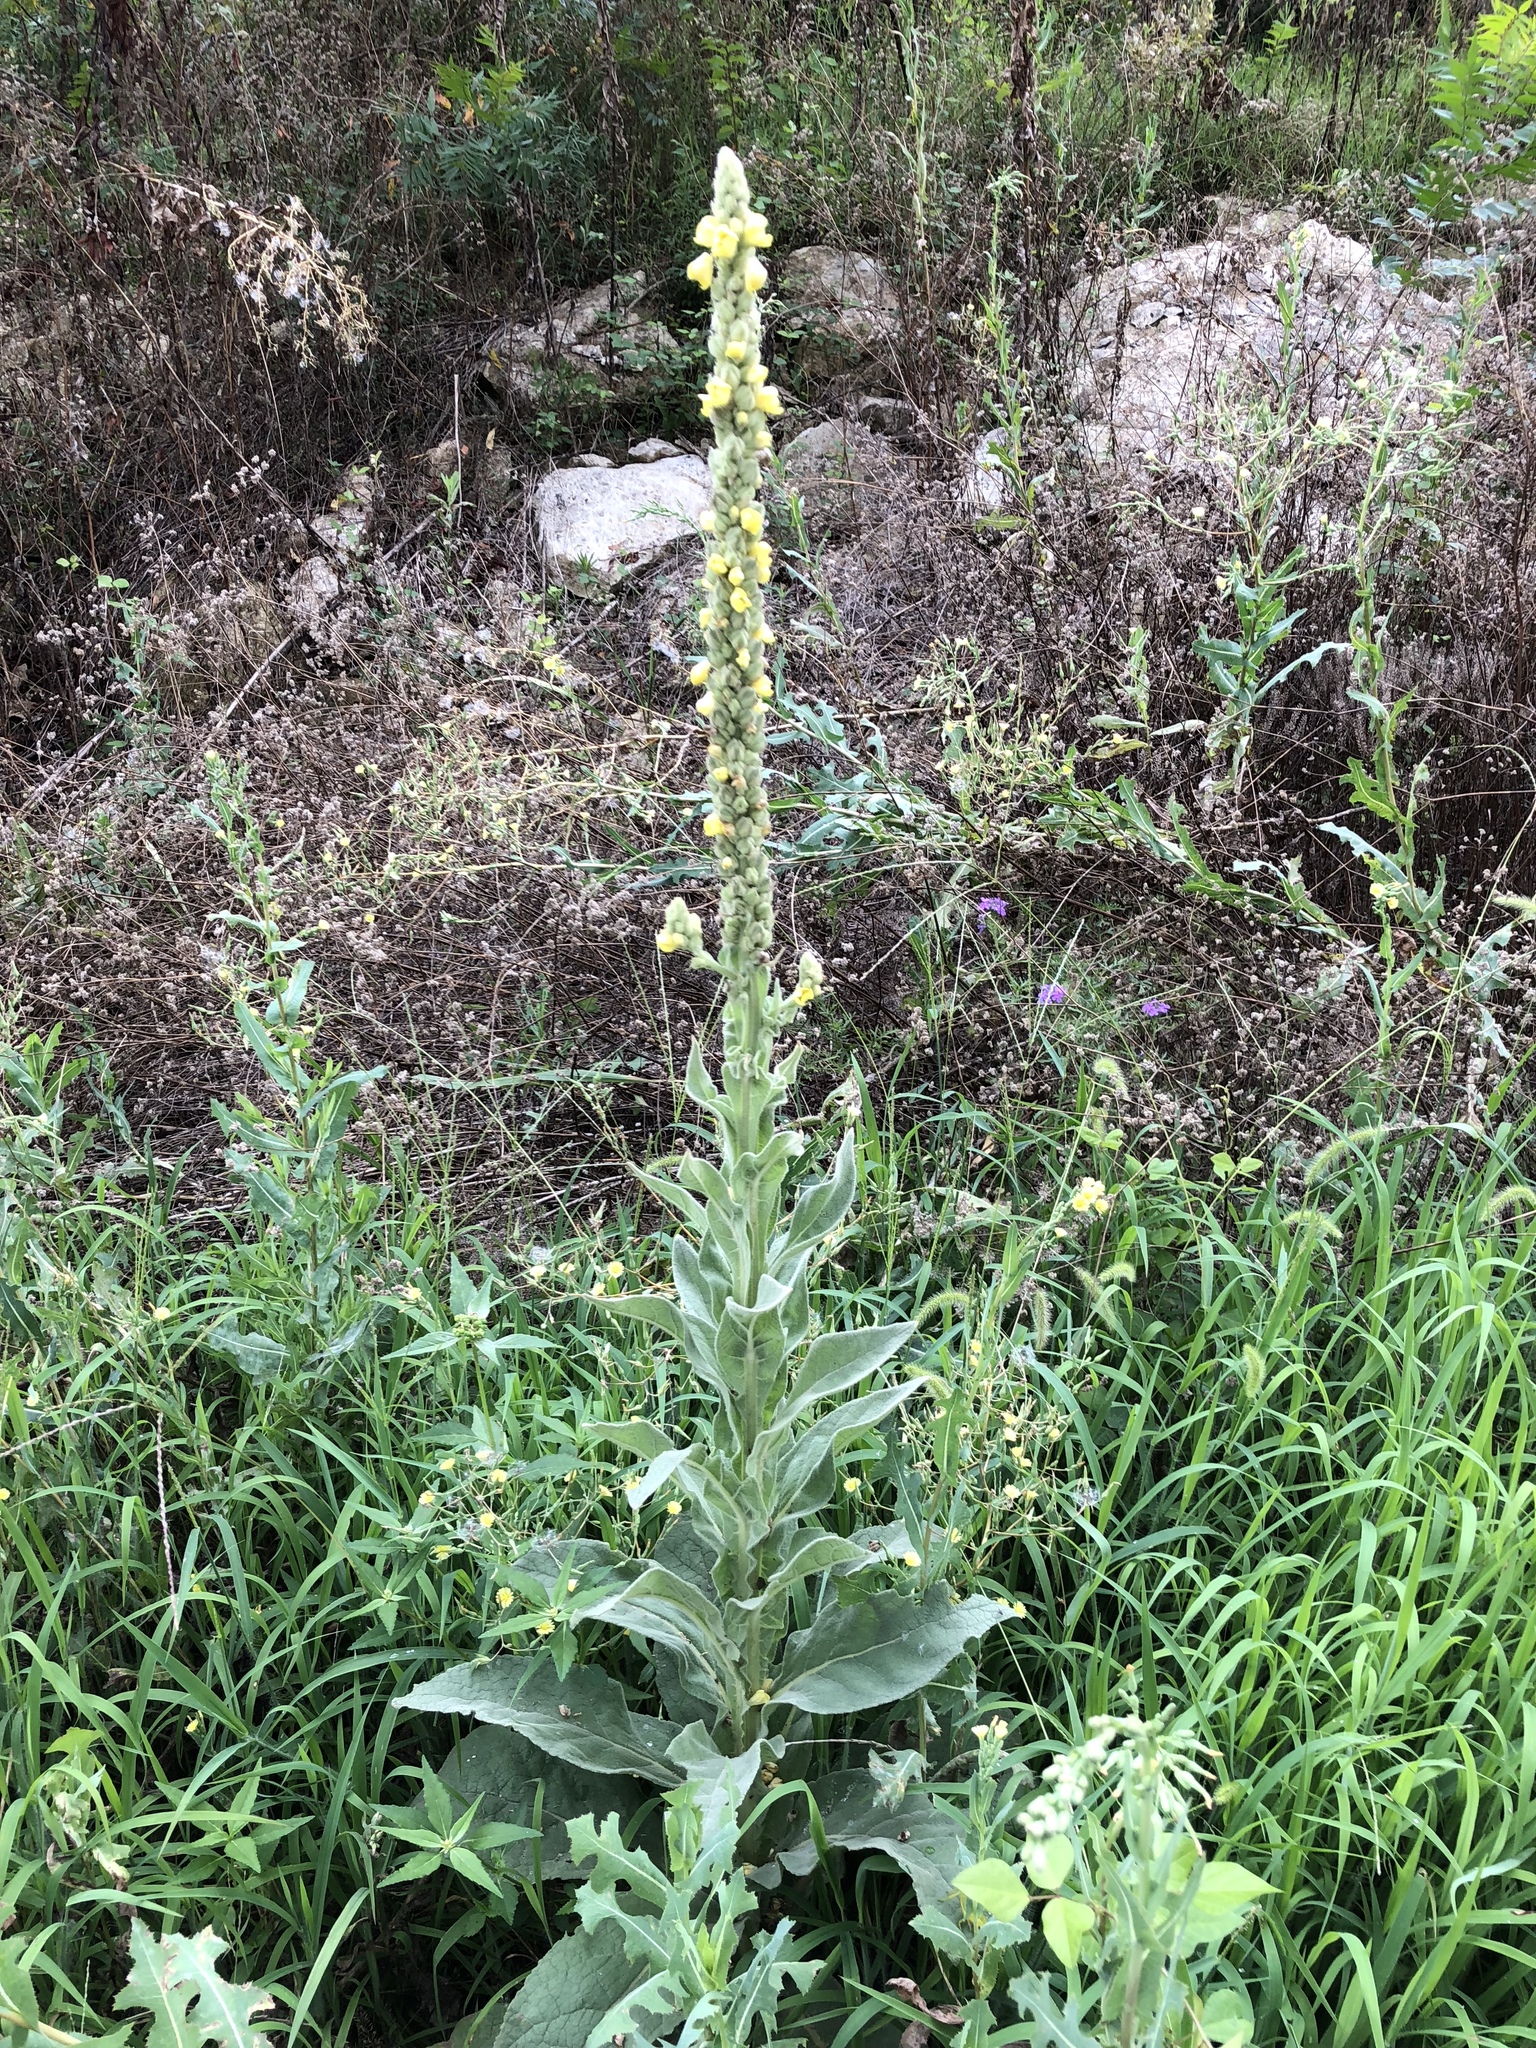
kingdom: Plantae
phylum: Tracheophyta
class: Magnoliopsida
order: Lamiales
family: Scrophulariaceae
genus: Verbascum
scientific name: Verbascum thapsus
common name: Common mullein
